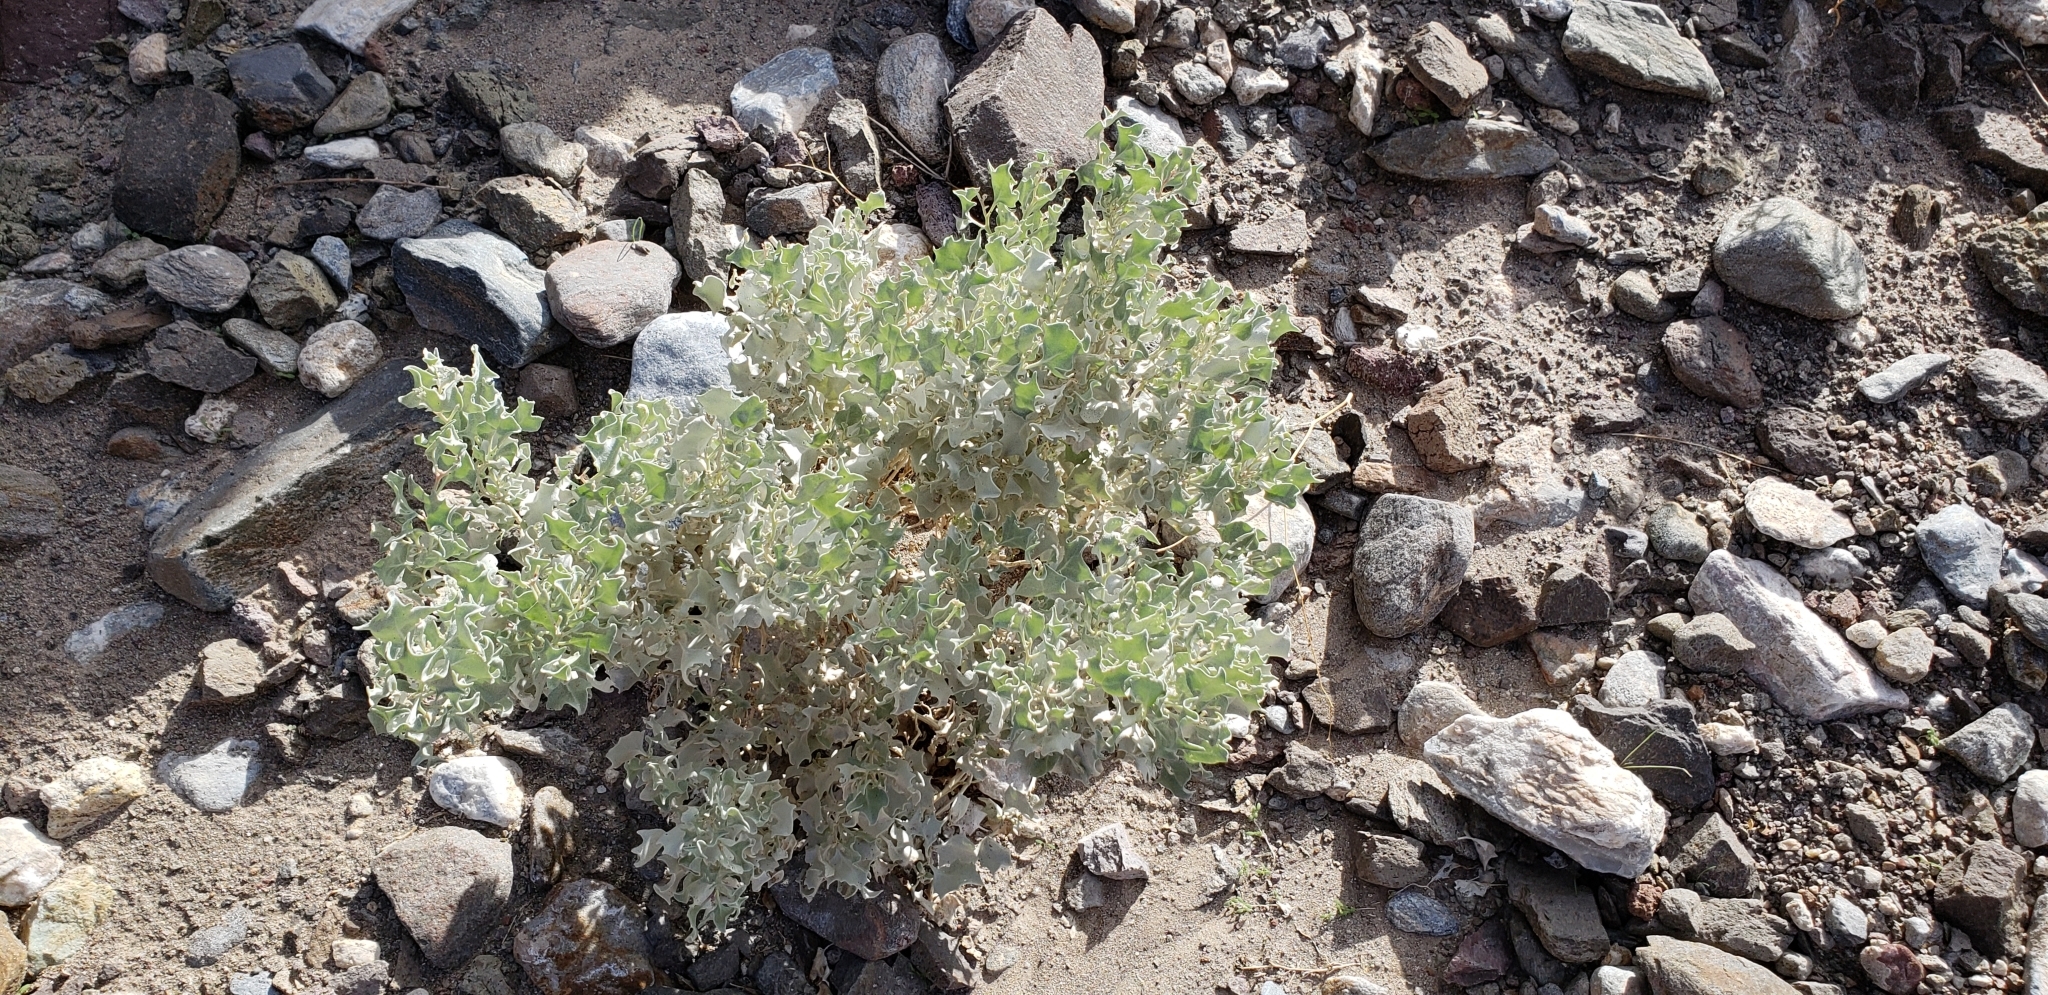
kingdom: Plantae
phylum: Tracheophyta
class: Magnoliopsida
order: Caryophyllales
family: Amaranthaceae
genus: Atriplex
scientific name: Atriplex hymenelytra
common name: Desert-holly
